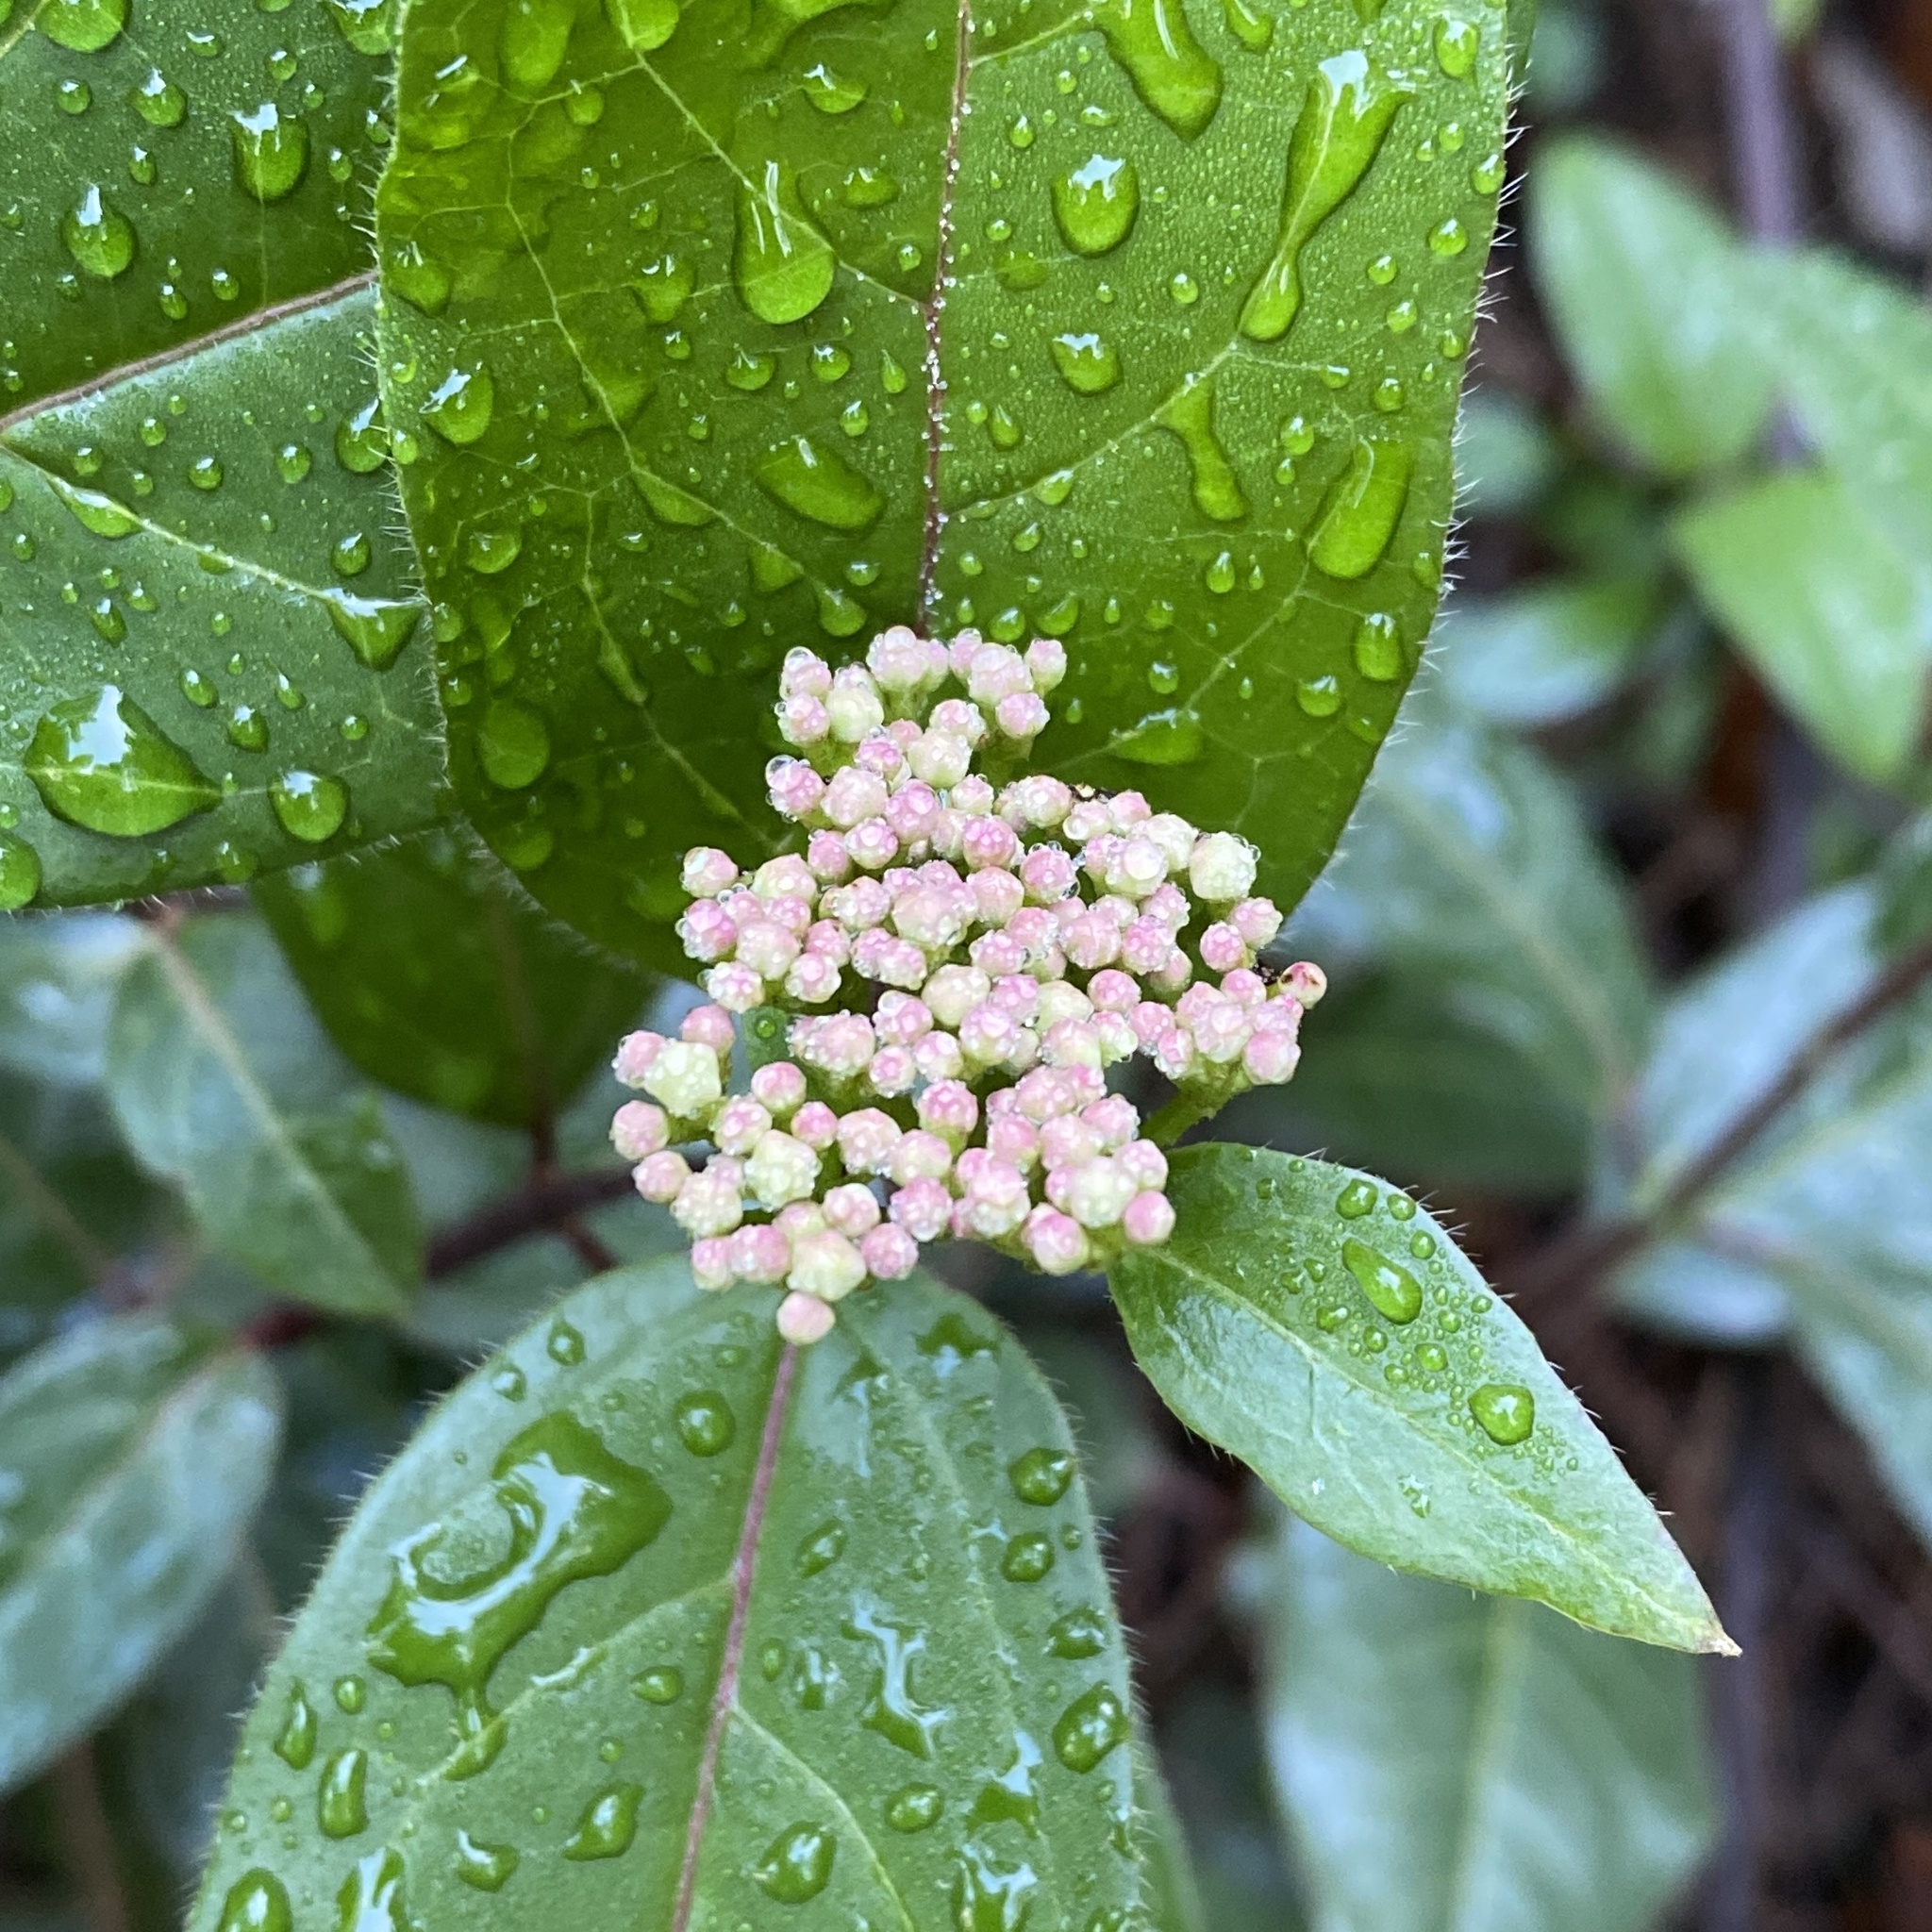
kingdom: Plantae
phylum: Tracheophyta
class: Magnoliopsida
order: Dipsacales
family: Viburnaceae
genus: Viburnum
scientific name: Viburnum tinus
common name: Laurustinus
